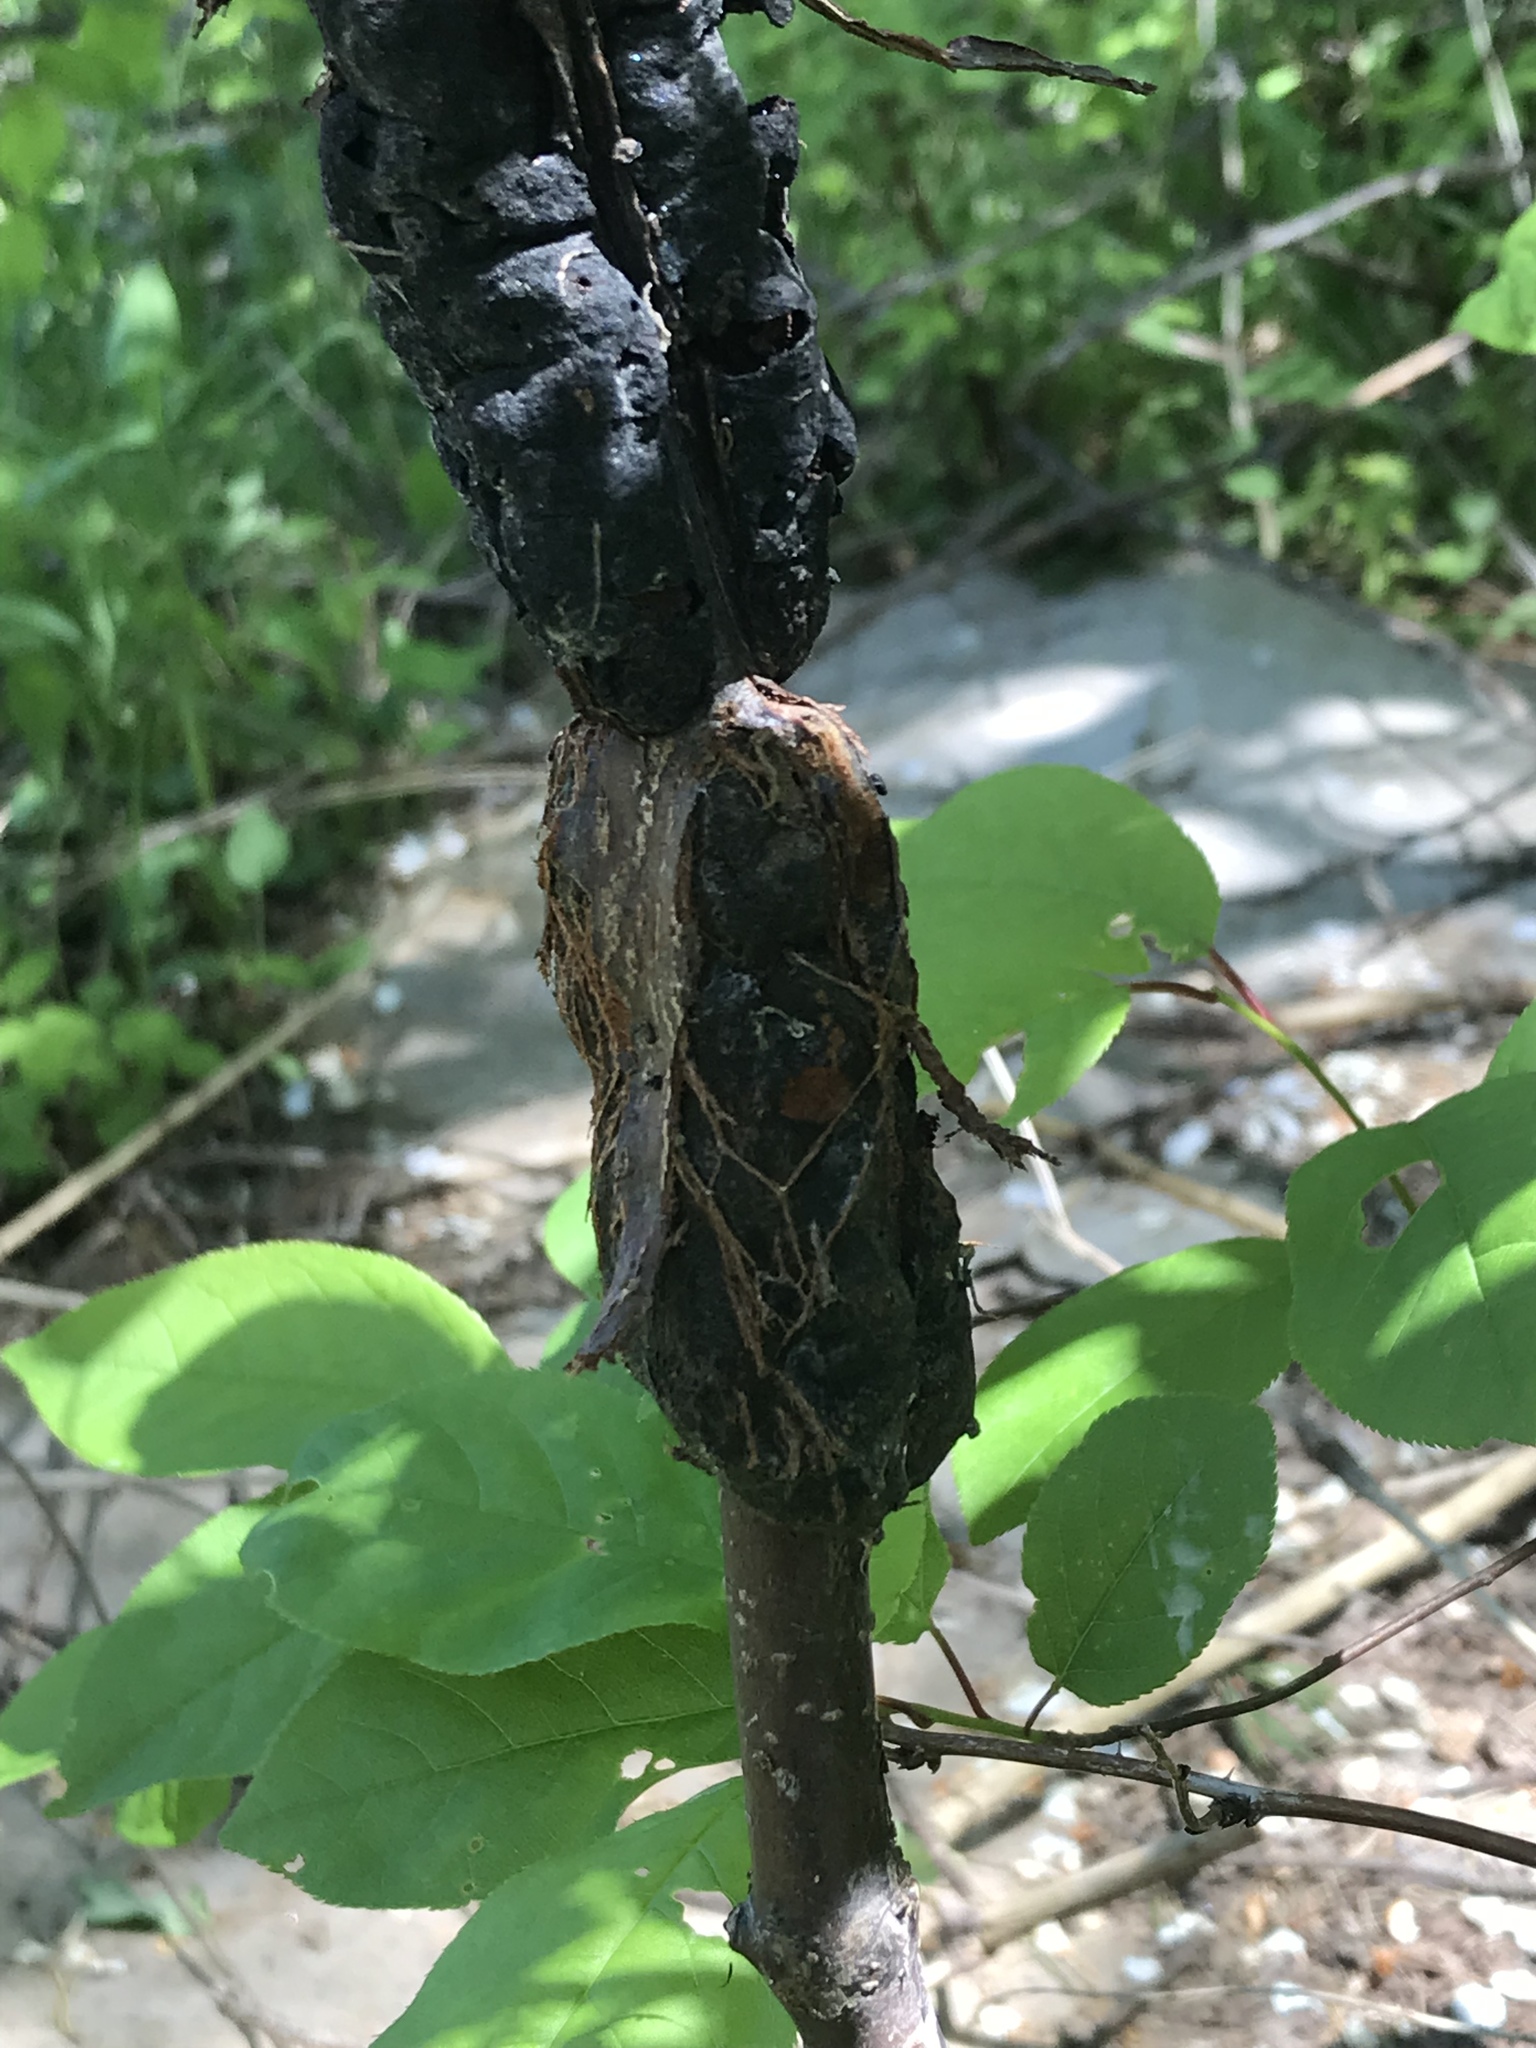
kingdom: Fungi
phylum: Ascomycota
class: Dothideomycetes
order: Venturiales
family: Venturiaceae
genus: Apiosporina
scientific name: Apiosporina morbosa
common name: Black knot
